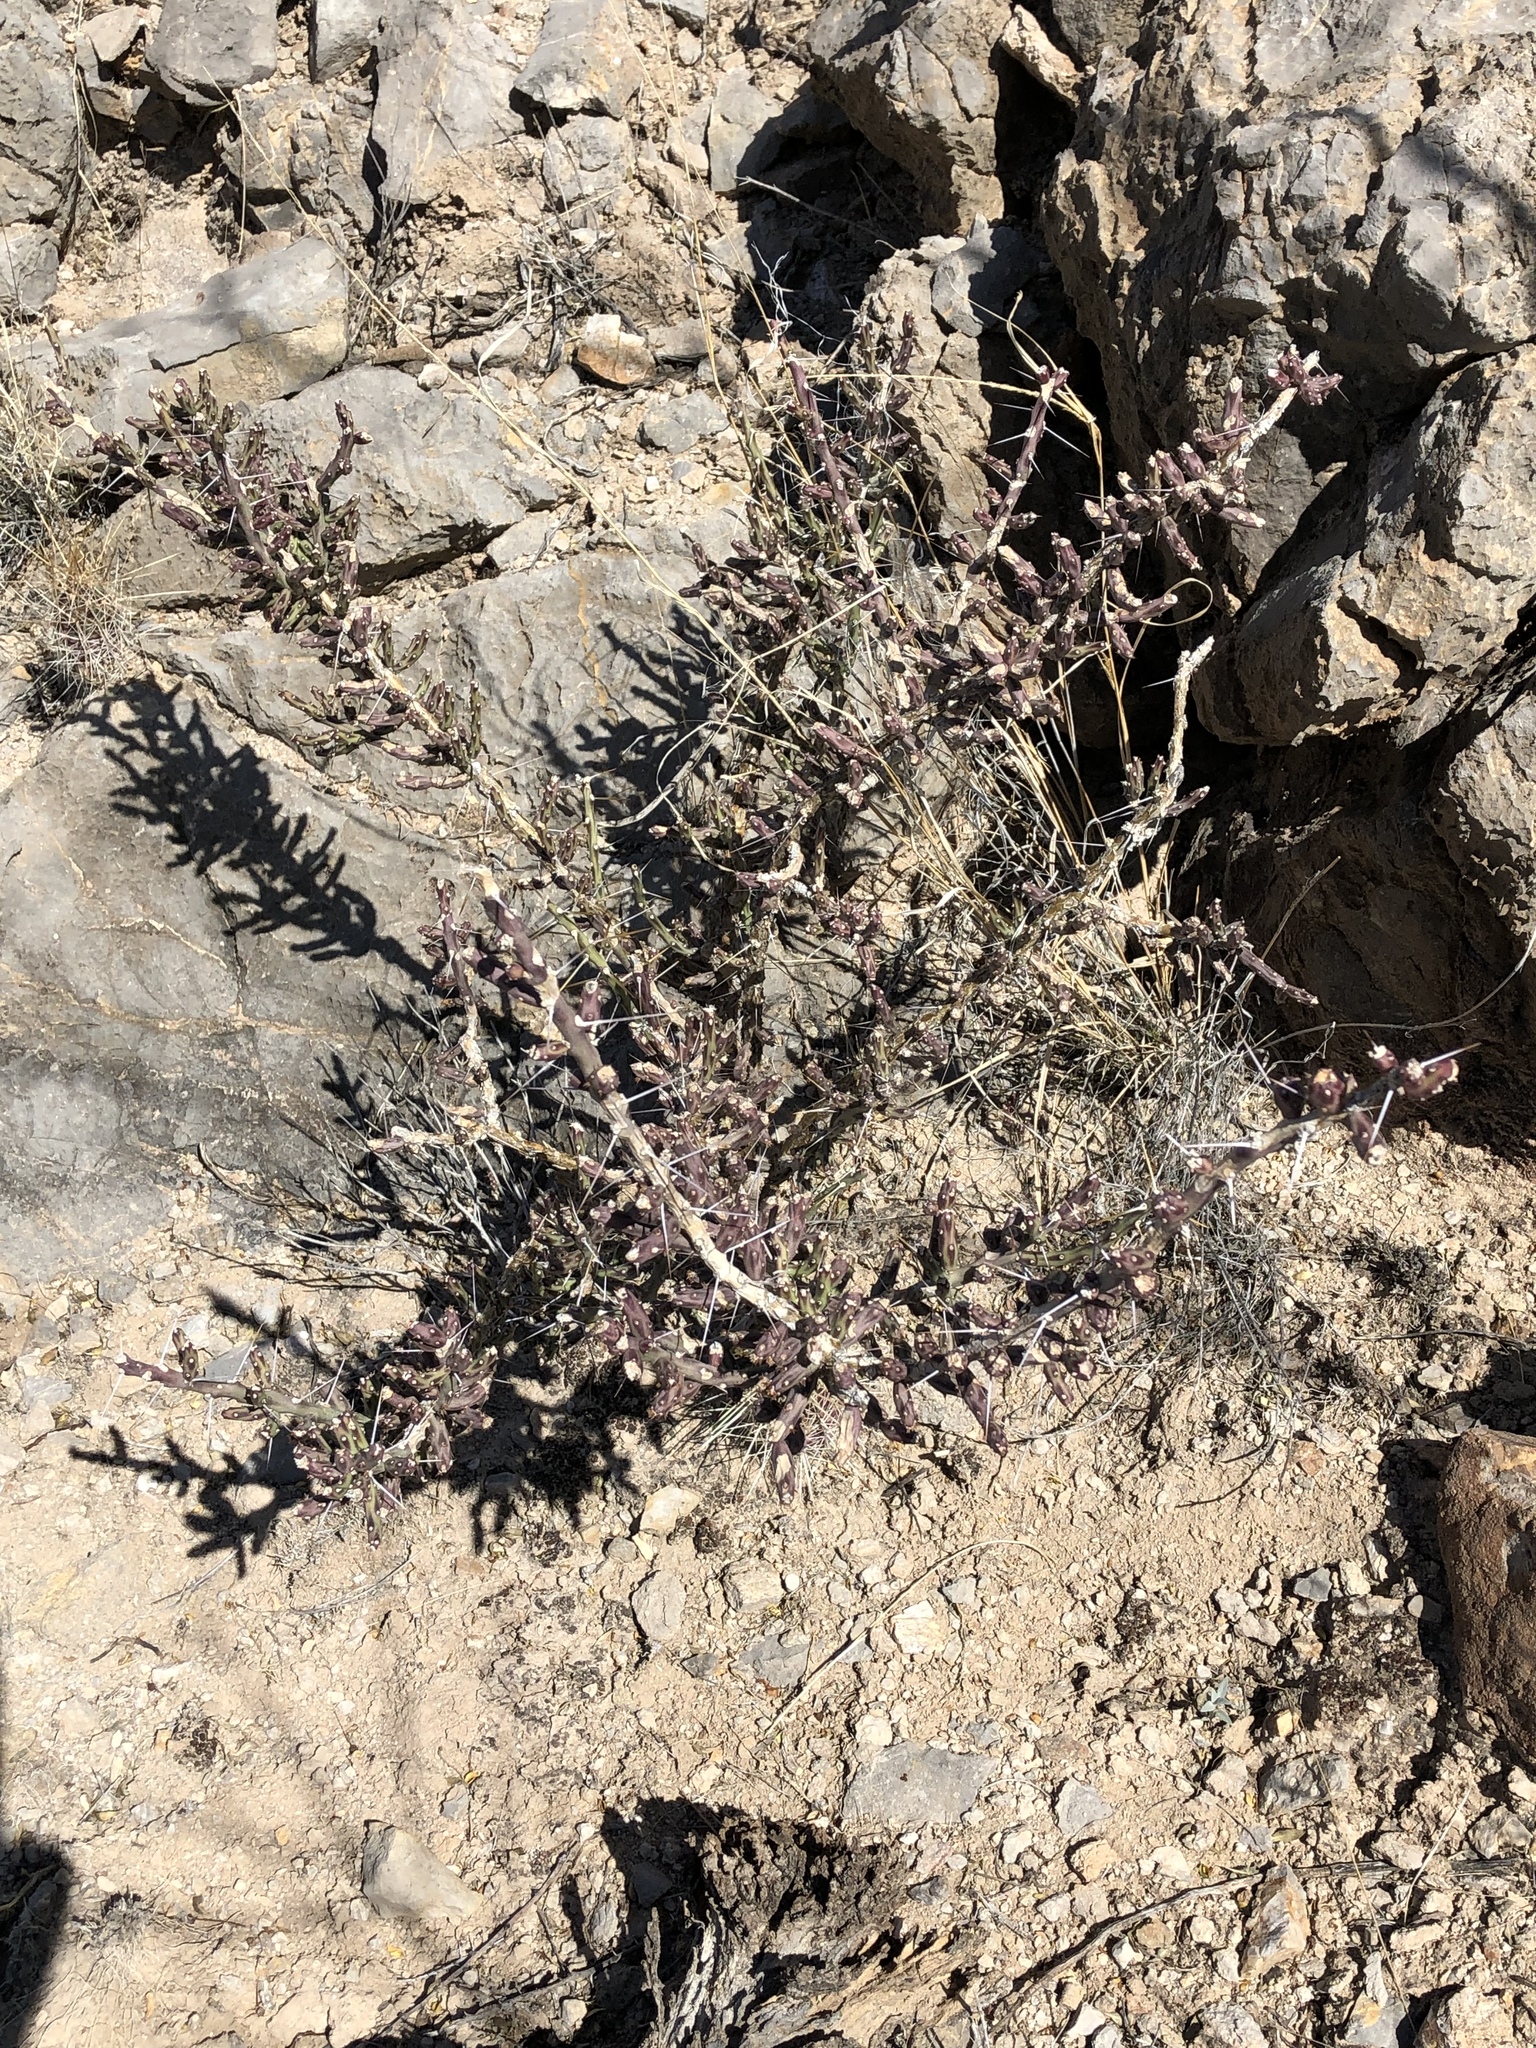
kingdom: Plantae
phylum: Tracheophyta
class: Magnoliopsida
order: Caryophyllales
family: Cactaceae
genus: Cylindropuntia
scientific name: Cylindropuntia leptocaulis
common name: Christmas cactus
